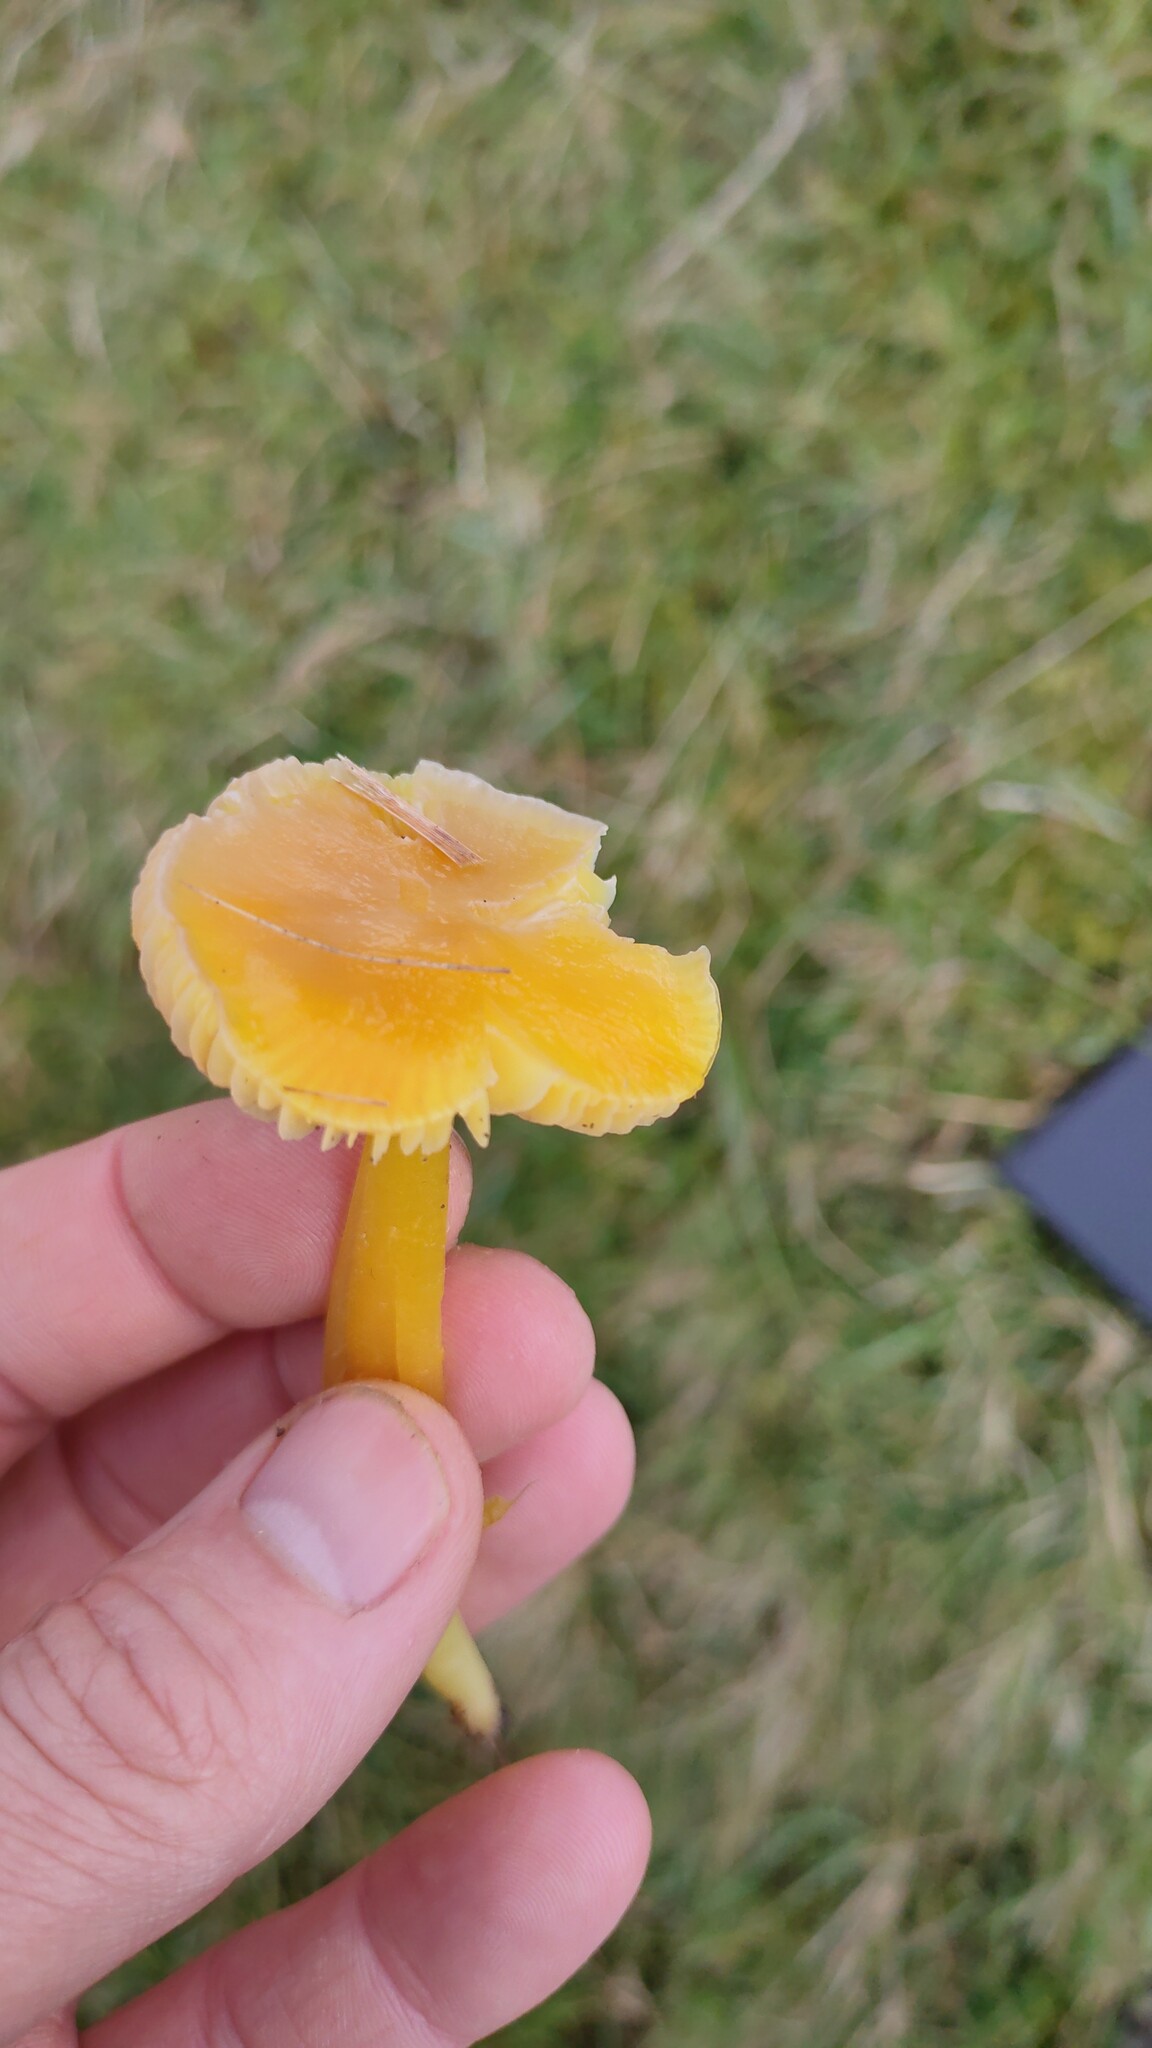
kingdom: Fungi
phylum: Basidiomycota
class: Agaricomycetes
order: Agaricales
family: Hygrophoraceae
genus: Hygrocybe
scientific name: Hygrocybe chlorophana
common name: Golden waxcap
